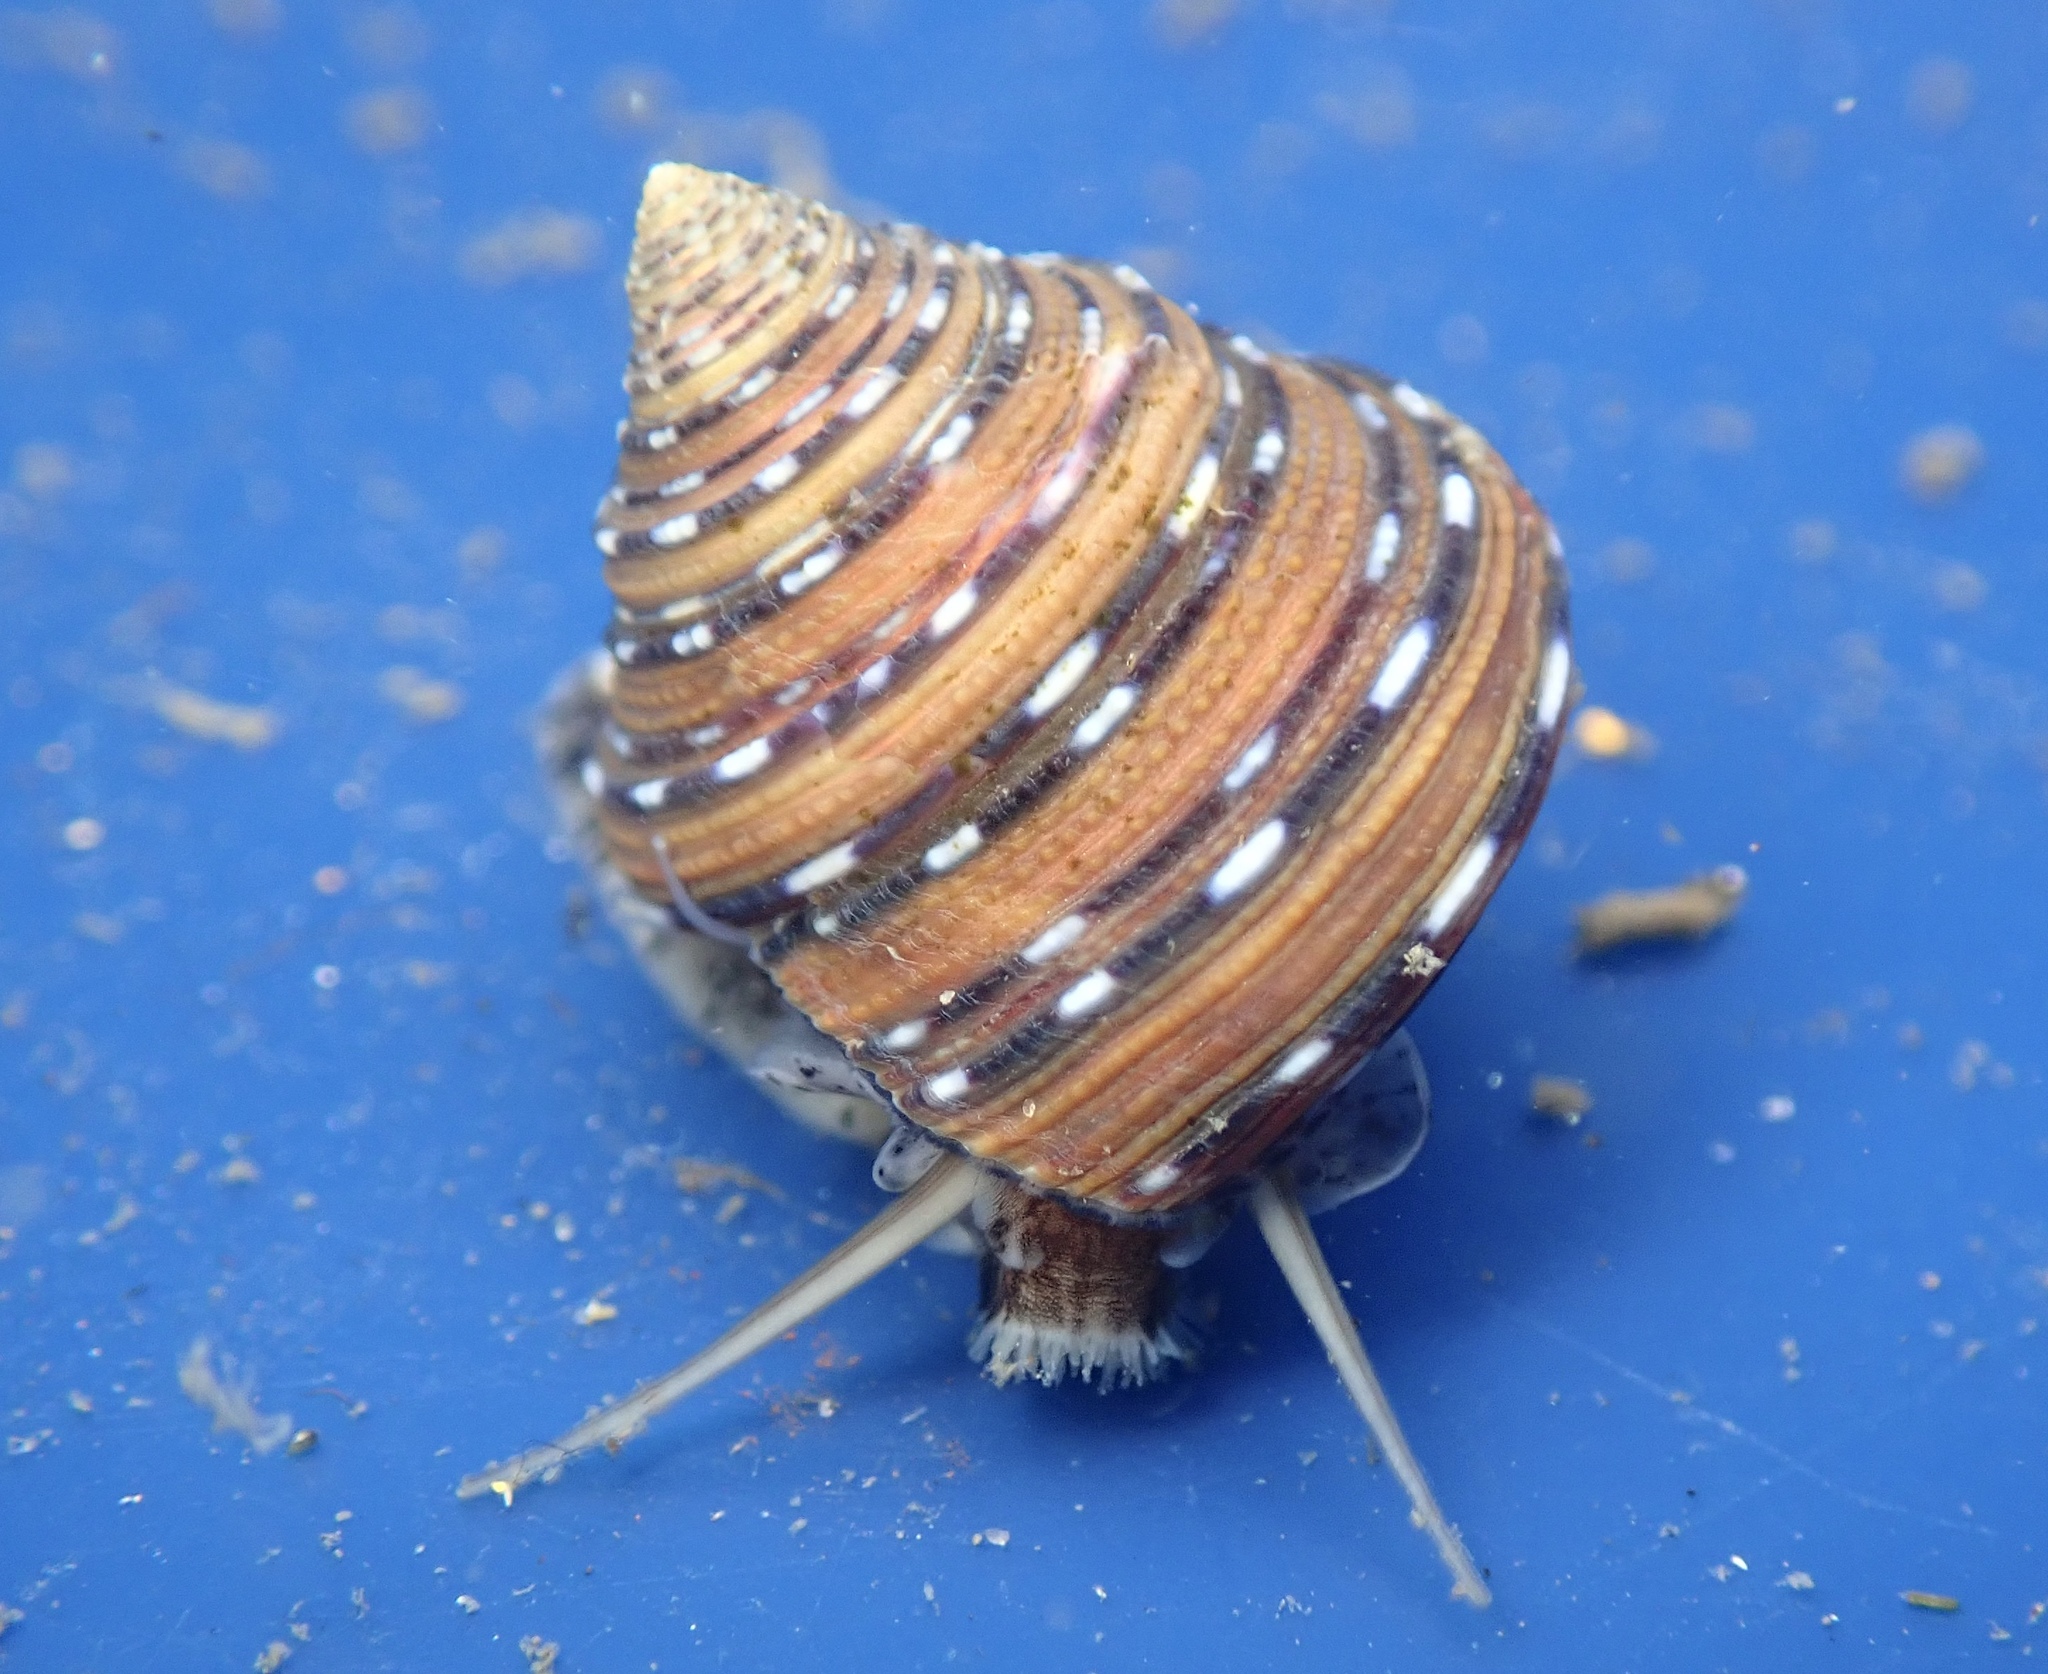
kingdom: Animalia
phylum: Mollusca
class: Gastropoda
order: Trochida
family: Calliostomatidae
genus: Calliostoma
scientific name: Calliostoma tricolor
